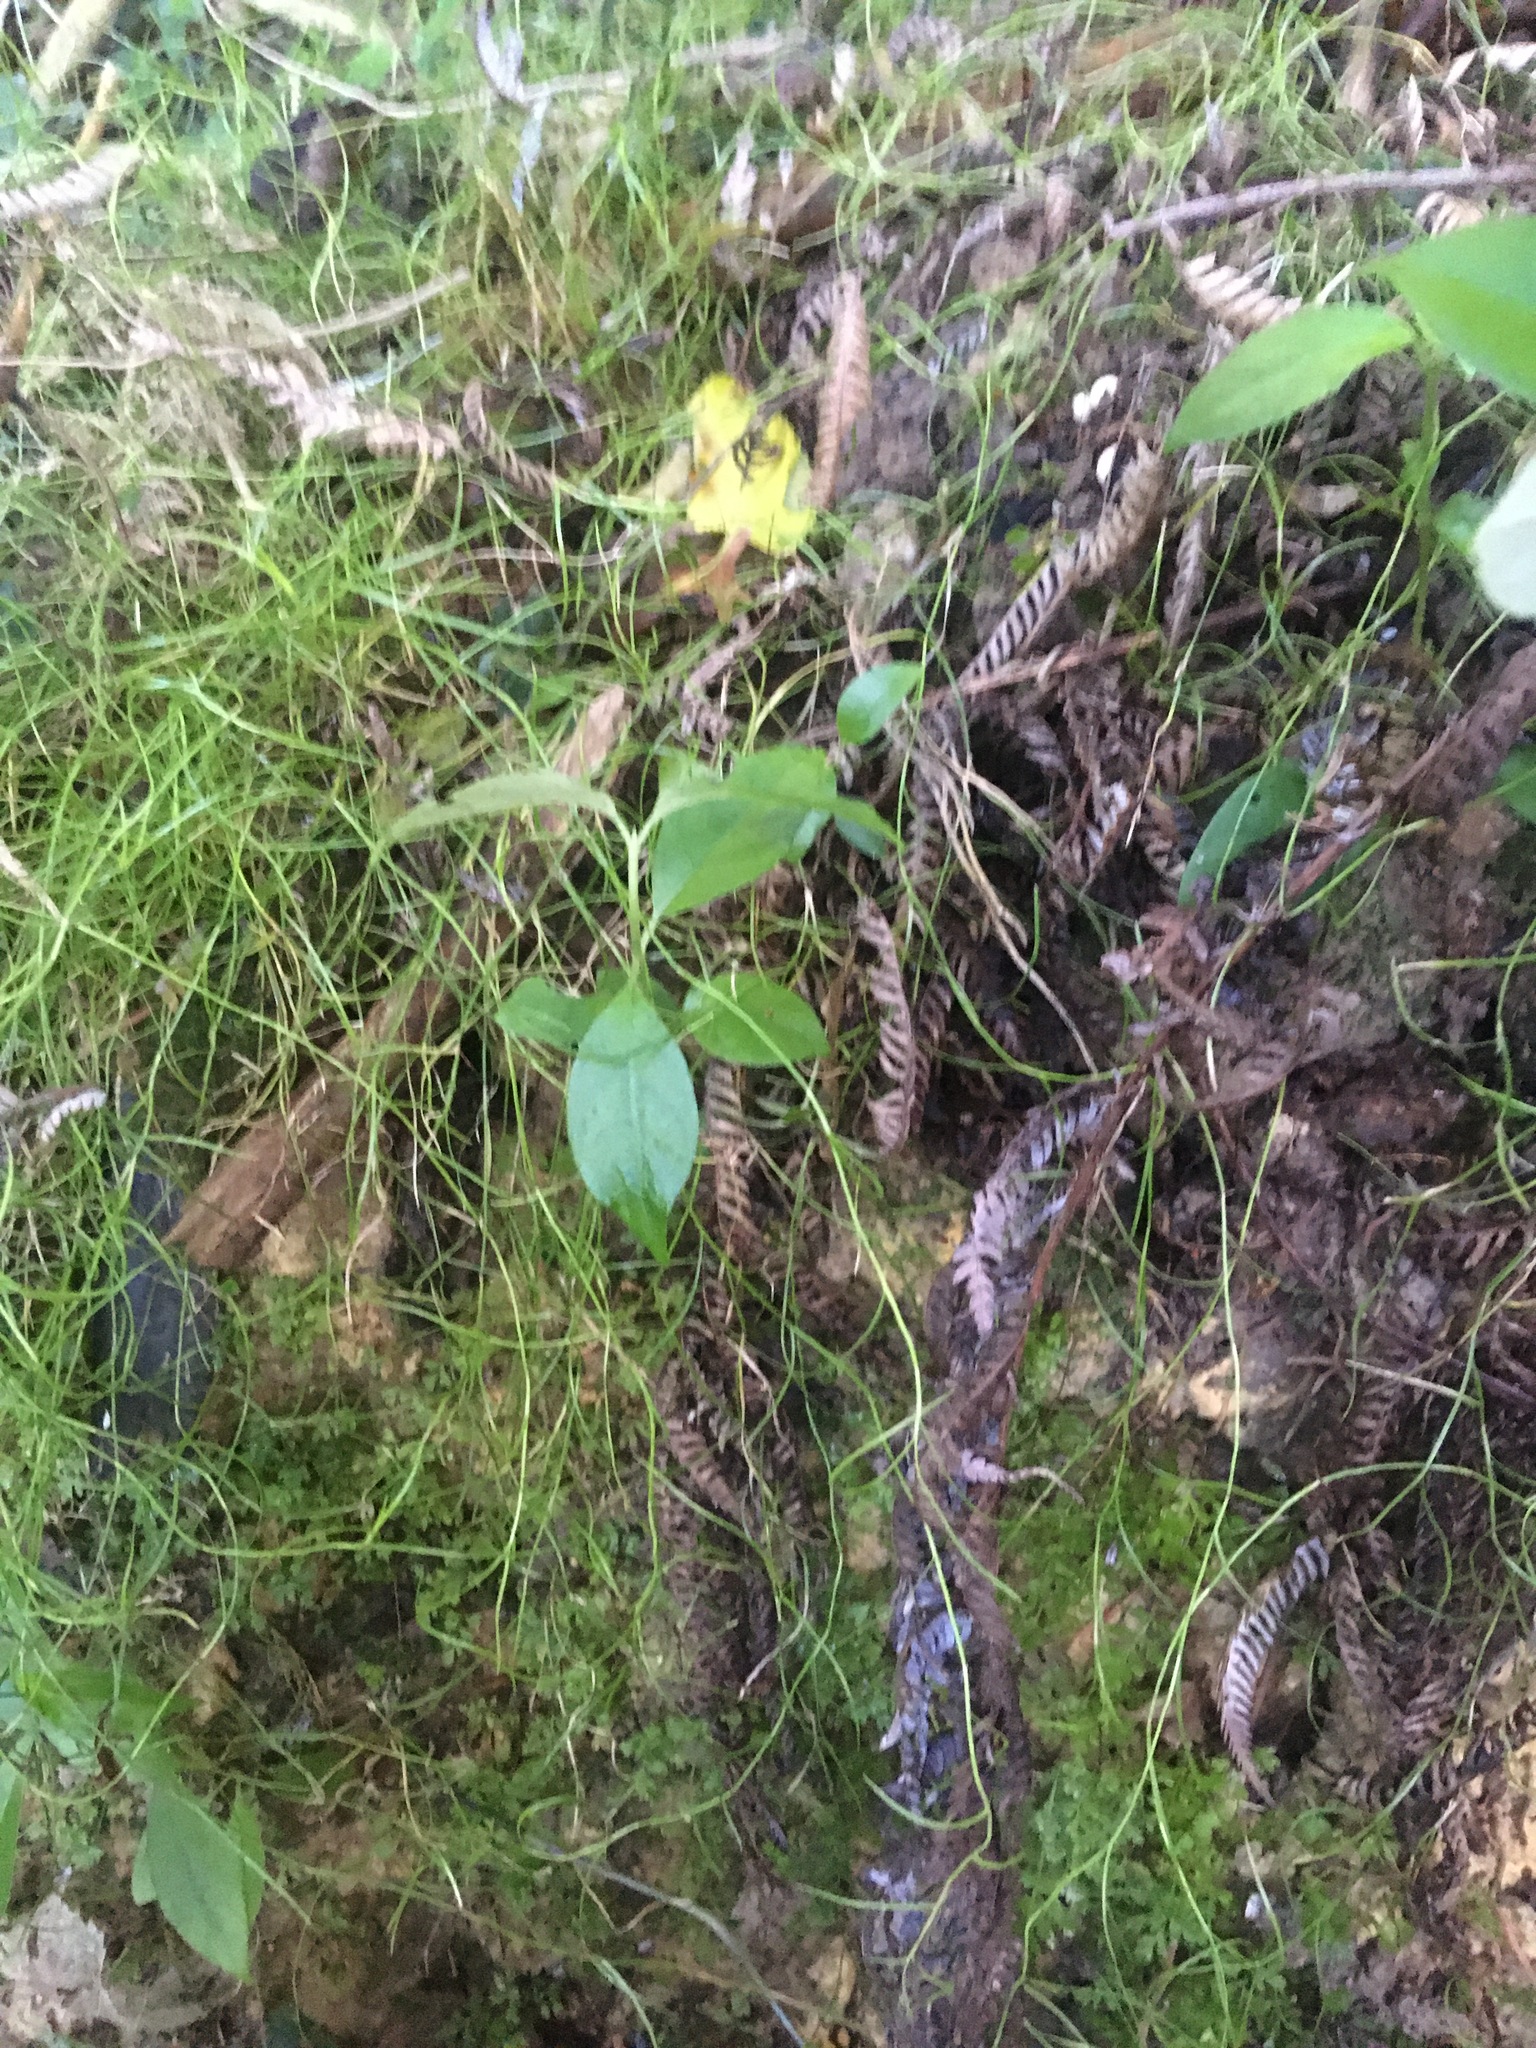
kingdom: Plantae
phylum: Tracheophyta
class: Magnoliopsida
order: Gentianales
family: Loganiaceae
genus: Geniostoma
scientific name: Geniostoma ligustrifolium
